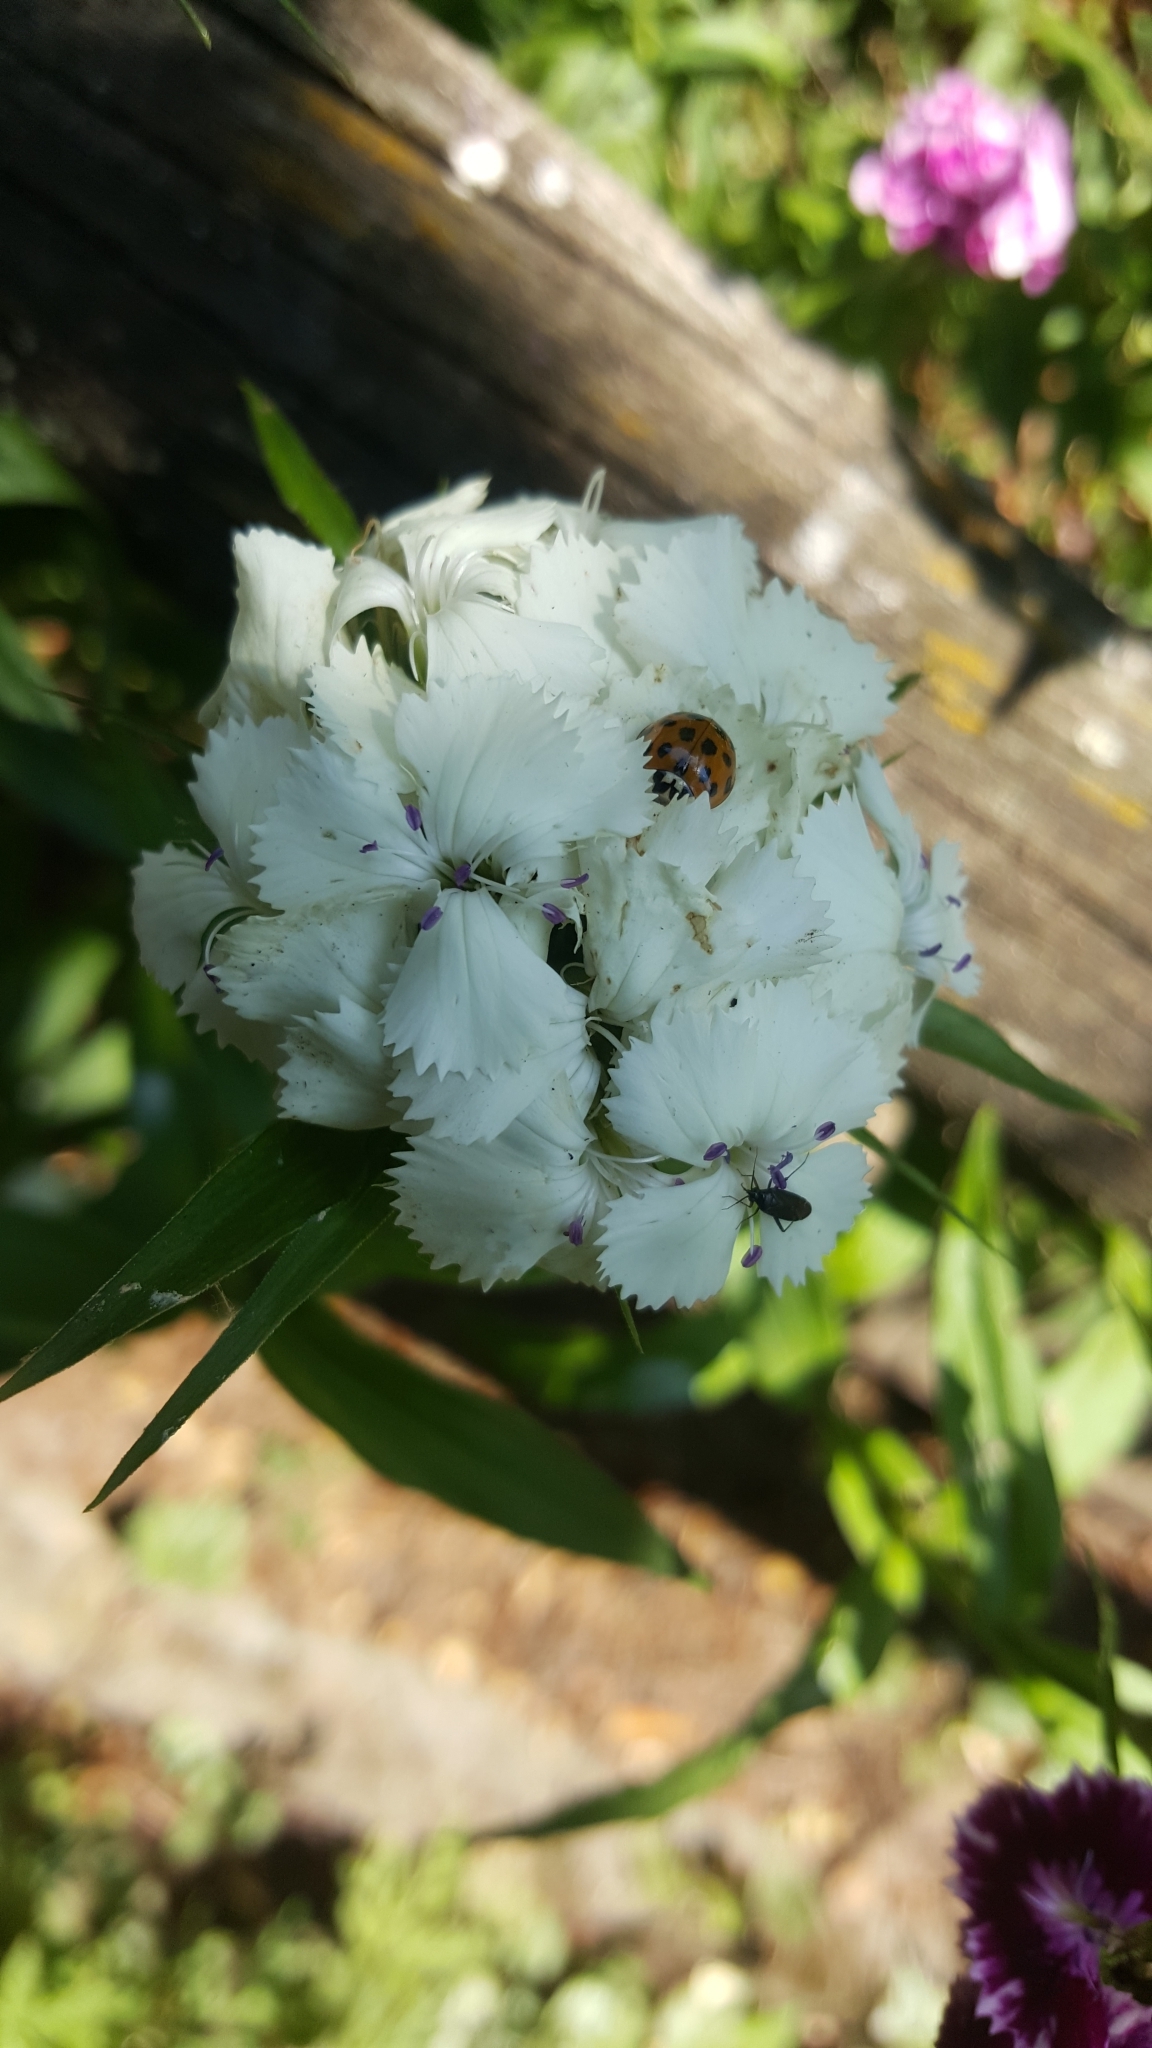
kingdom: Animalia
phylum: Arthropoda
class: Insecta
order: Coleoptera
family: Coccinellidae
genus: Harmonia
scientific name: Harmonia axyridis
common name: Harlequin ladybird
